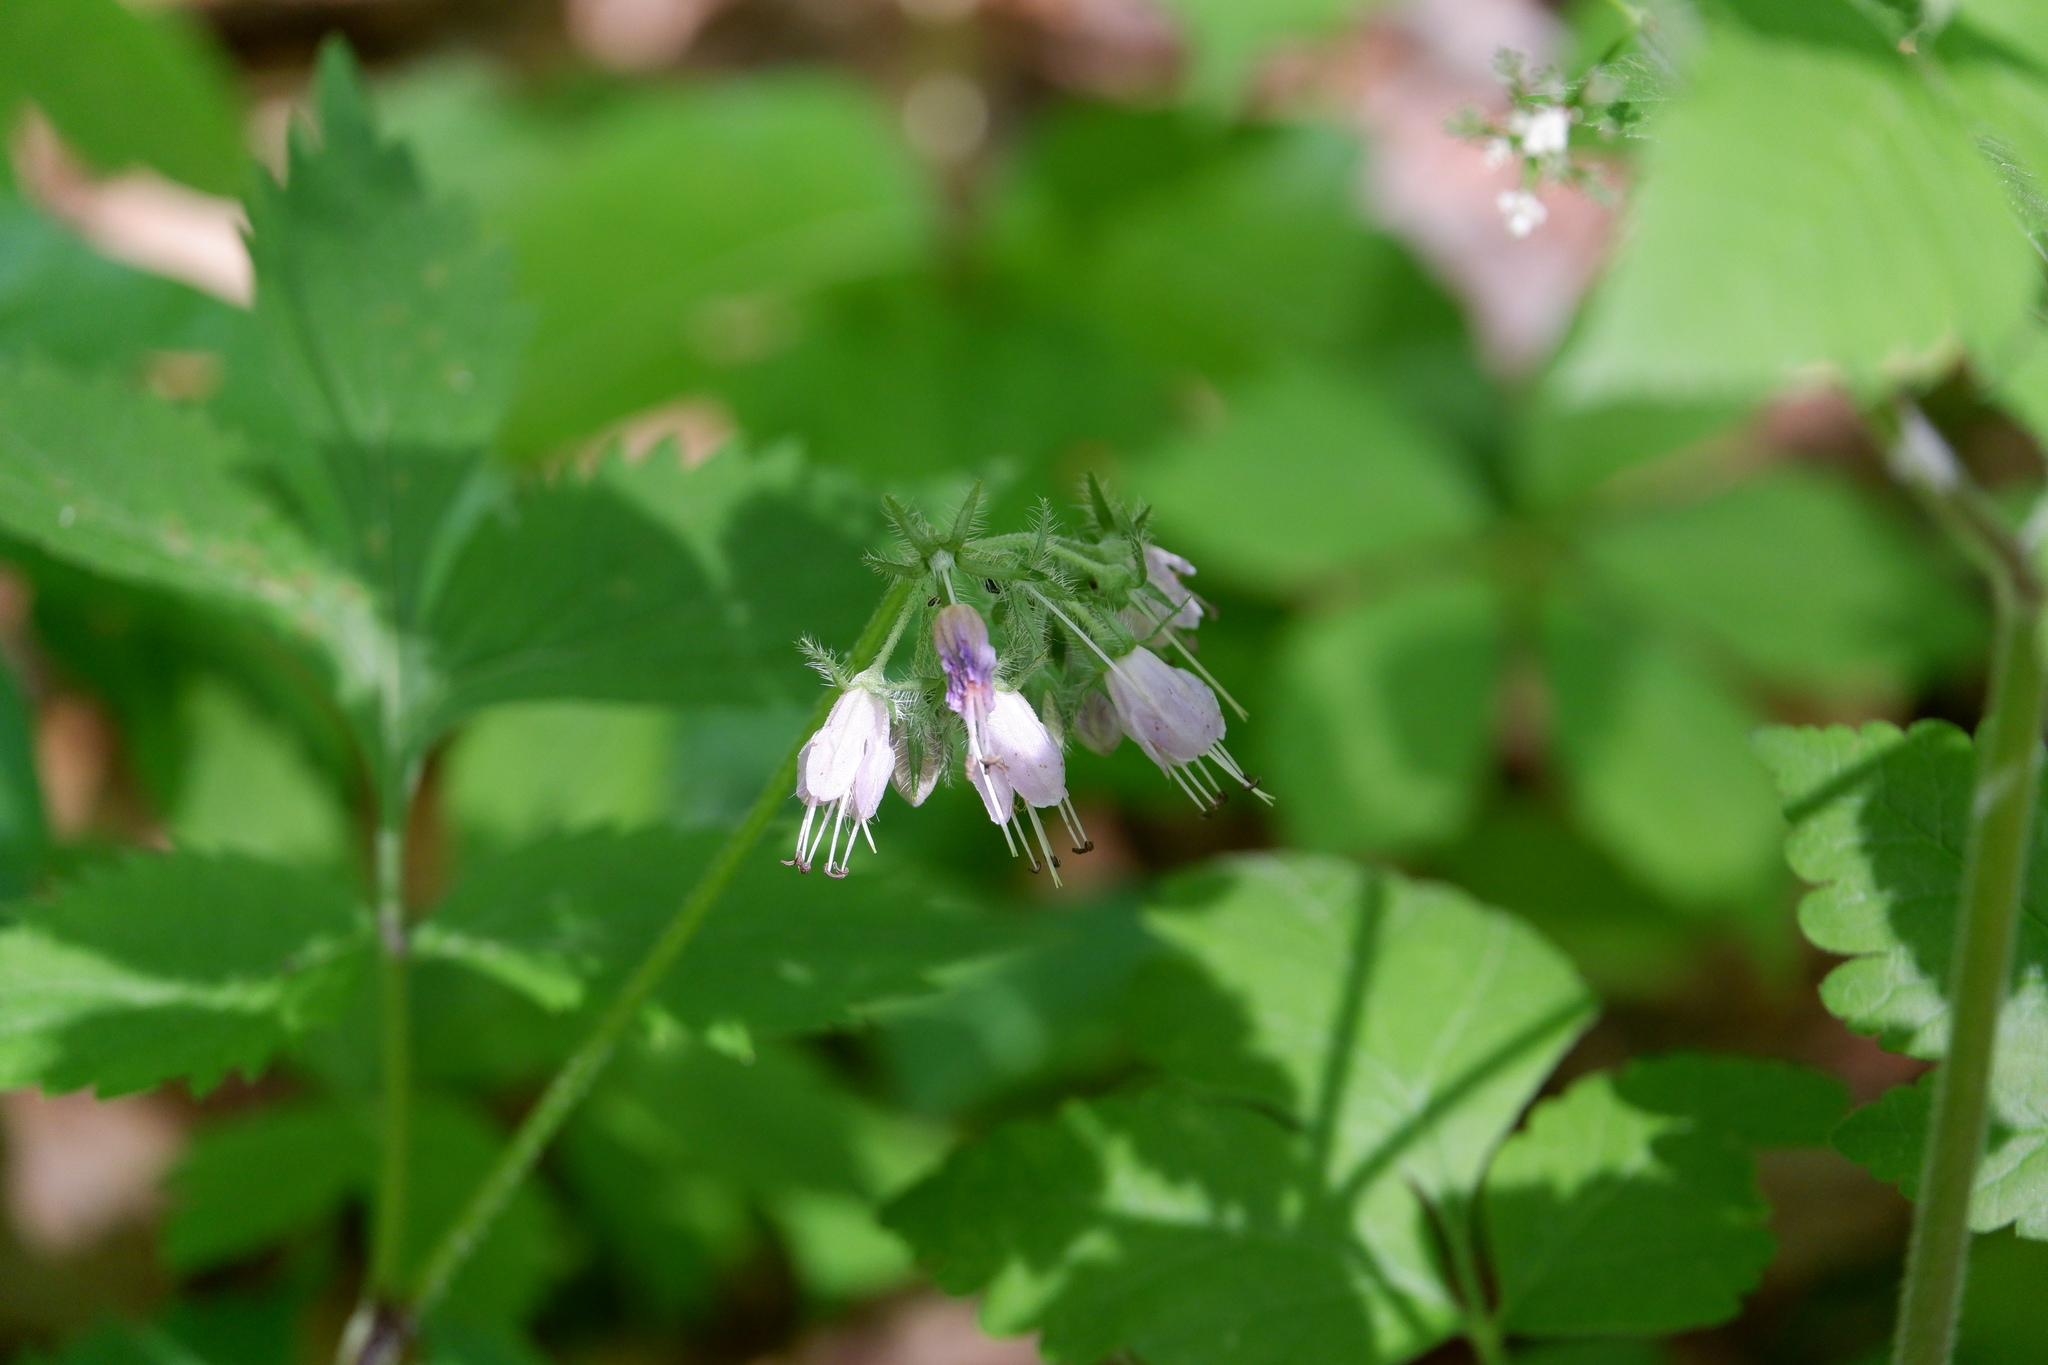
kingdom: Plantae
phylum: Tracheophyta
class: Magnoliopsida
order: Boraginales
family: Hydrophyllaceae
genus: Hydrophyllum
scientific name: Hydrophyllum virginianum
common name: Virginia waterleaf
